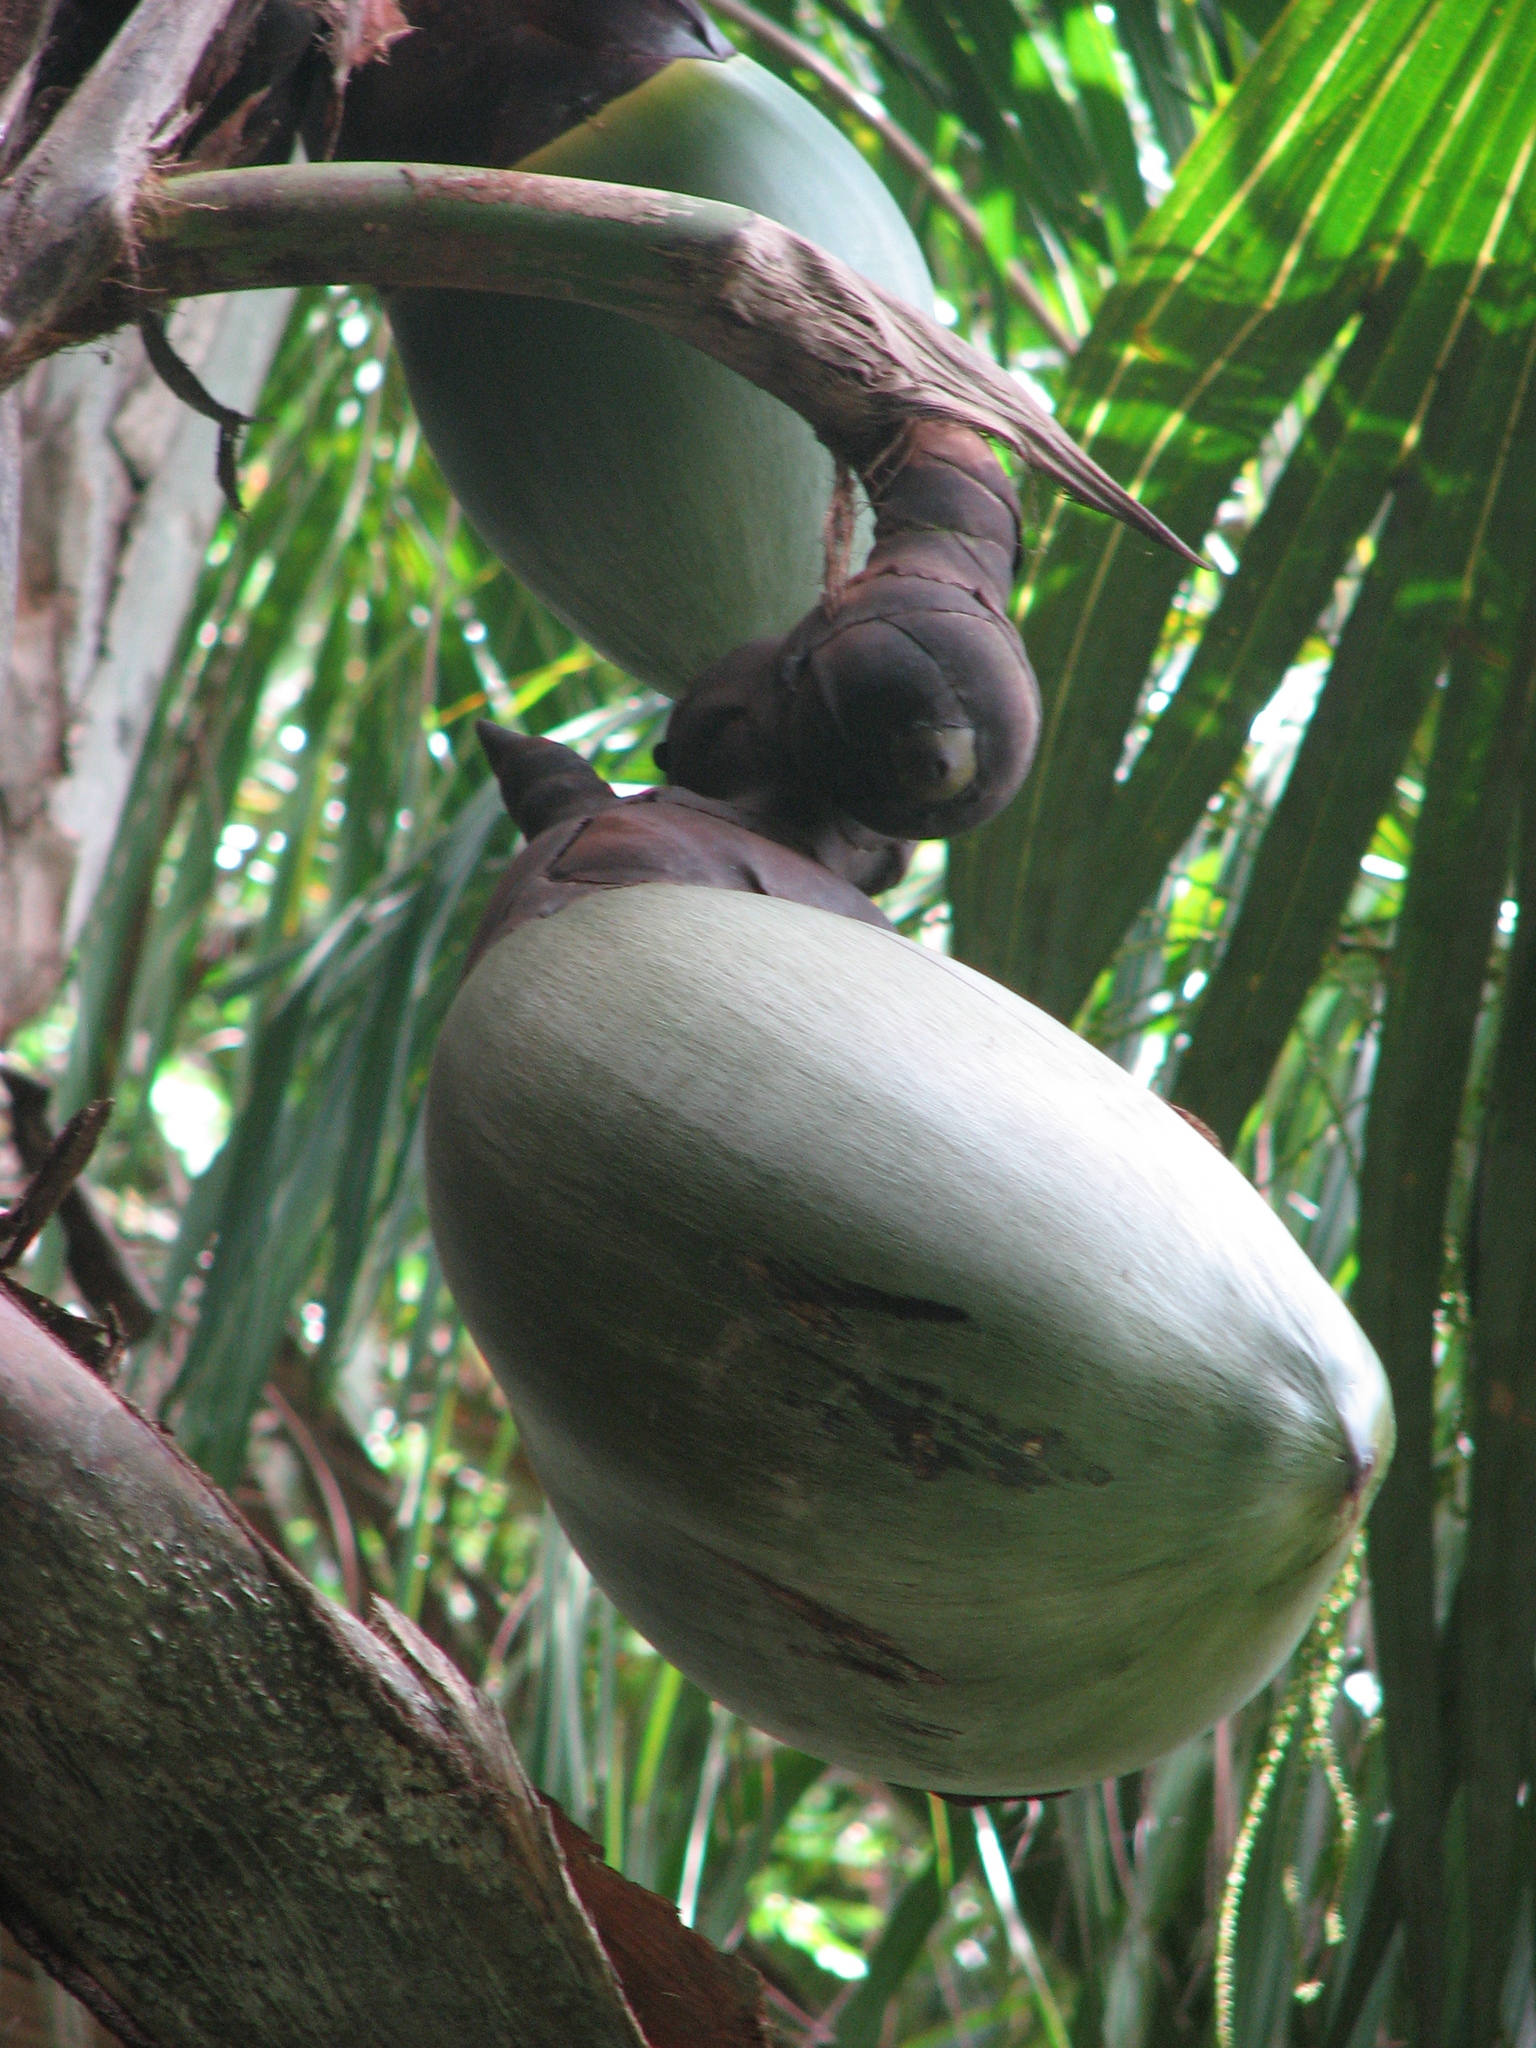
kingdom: Plantae
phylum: Tracheophyta
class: Liliopsida
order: Arecales
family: Arecaceae
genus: Lodoicea
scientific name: Lodoicea maldivica
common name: Double coconut palm
